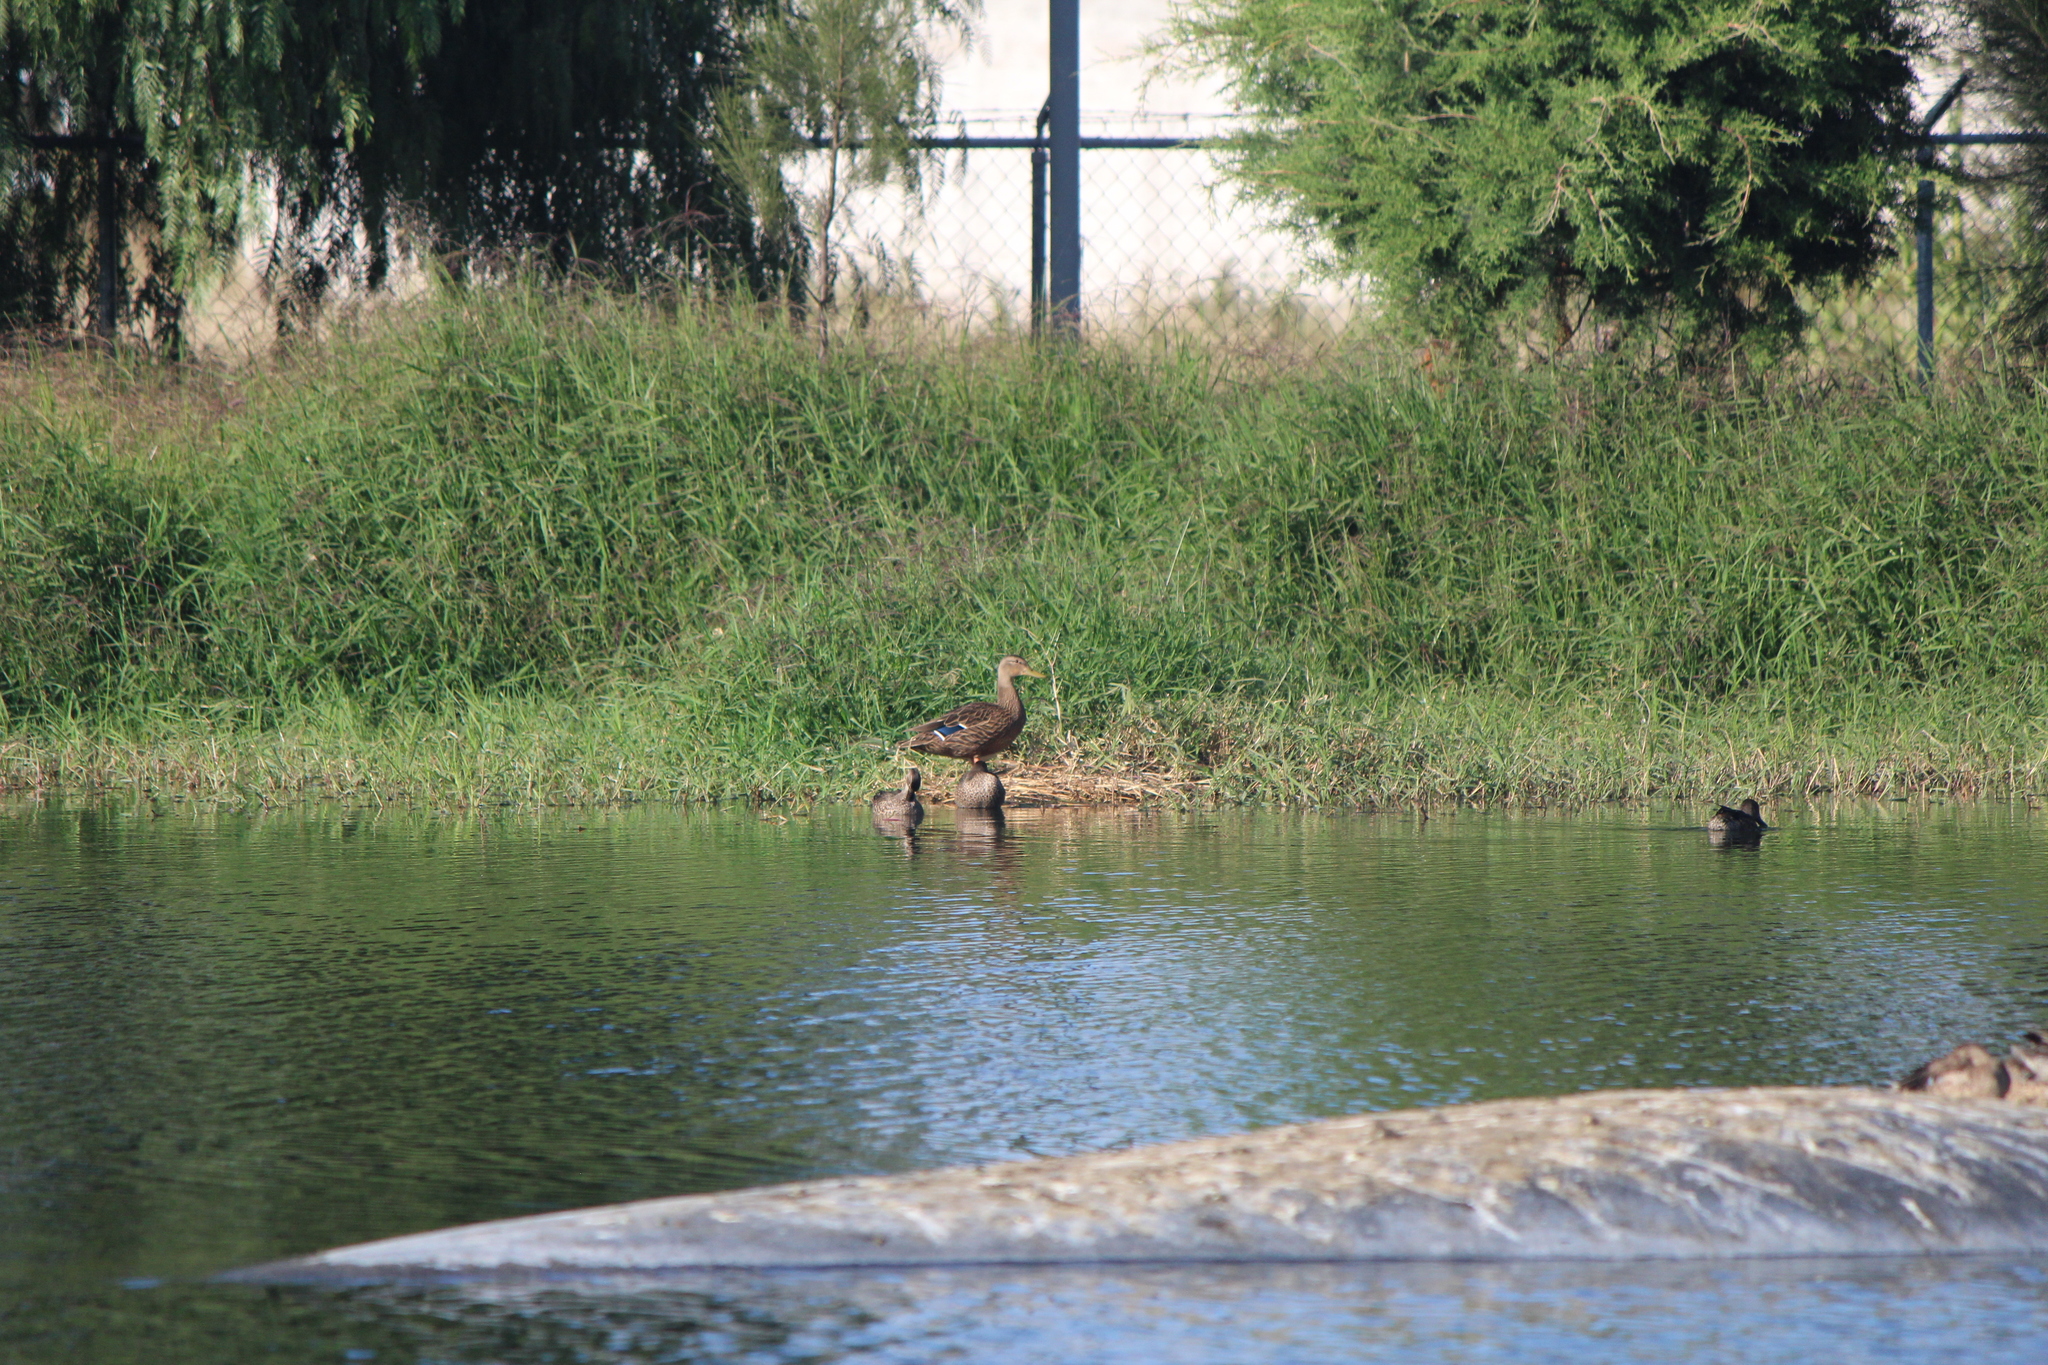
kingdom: Animalia
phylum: Chordata
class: Aves
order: Anseriformes
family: Anatidae
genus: Anas
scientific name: Anas diazi
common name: Mexican duck
